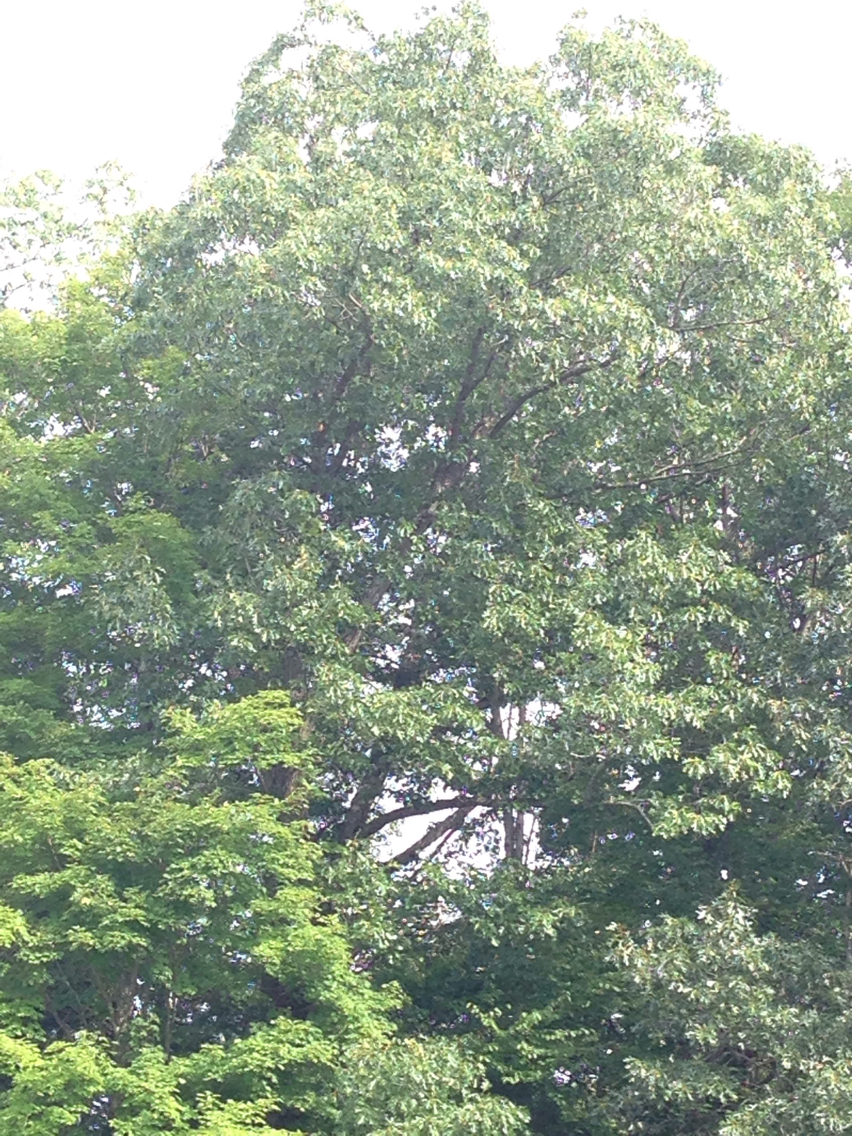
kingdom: Plantae
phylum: Tracheophyta
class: Magnoliopsida
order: Fagales
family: Fagaceae
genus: Quercus
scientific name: Quercus rubra
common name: Red oak
